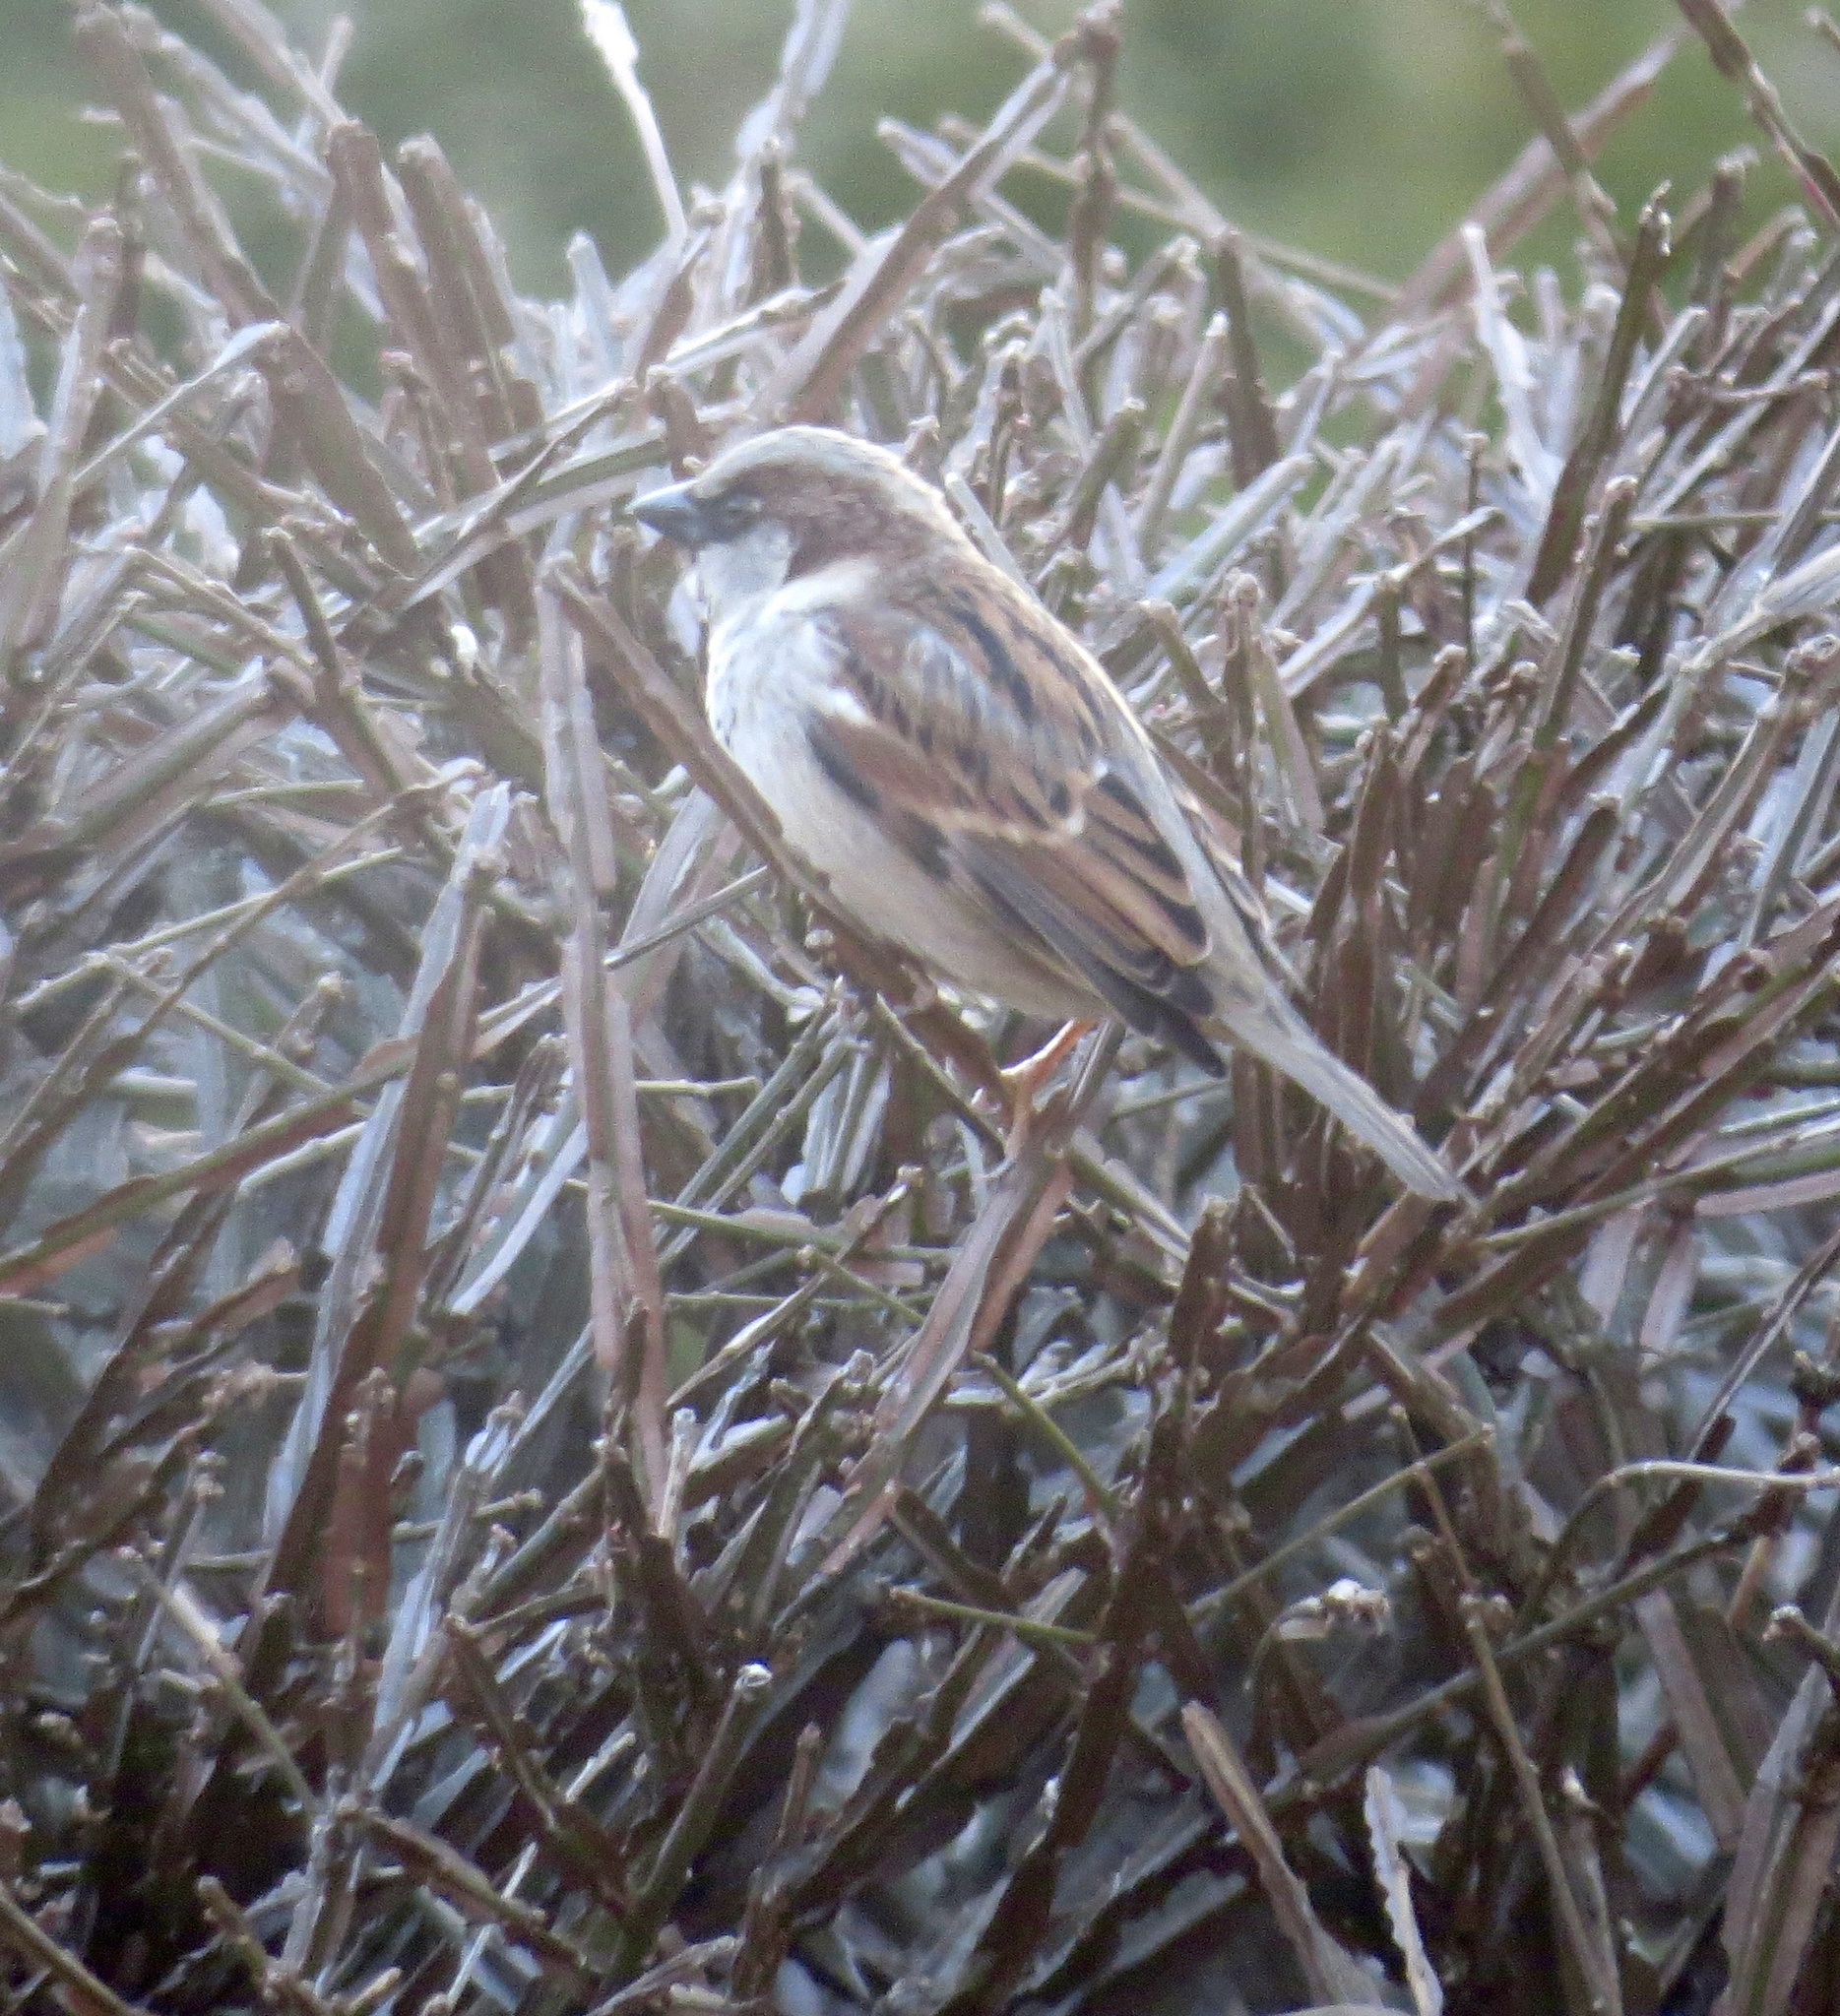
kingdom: Animalia
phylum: Chordata
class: Aves
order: Passeriformes
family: Passeridae
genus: Passer
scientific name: Passer domesticus
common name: House sparrow
